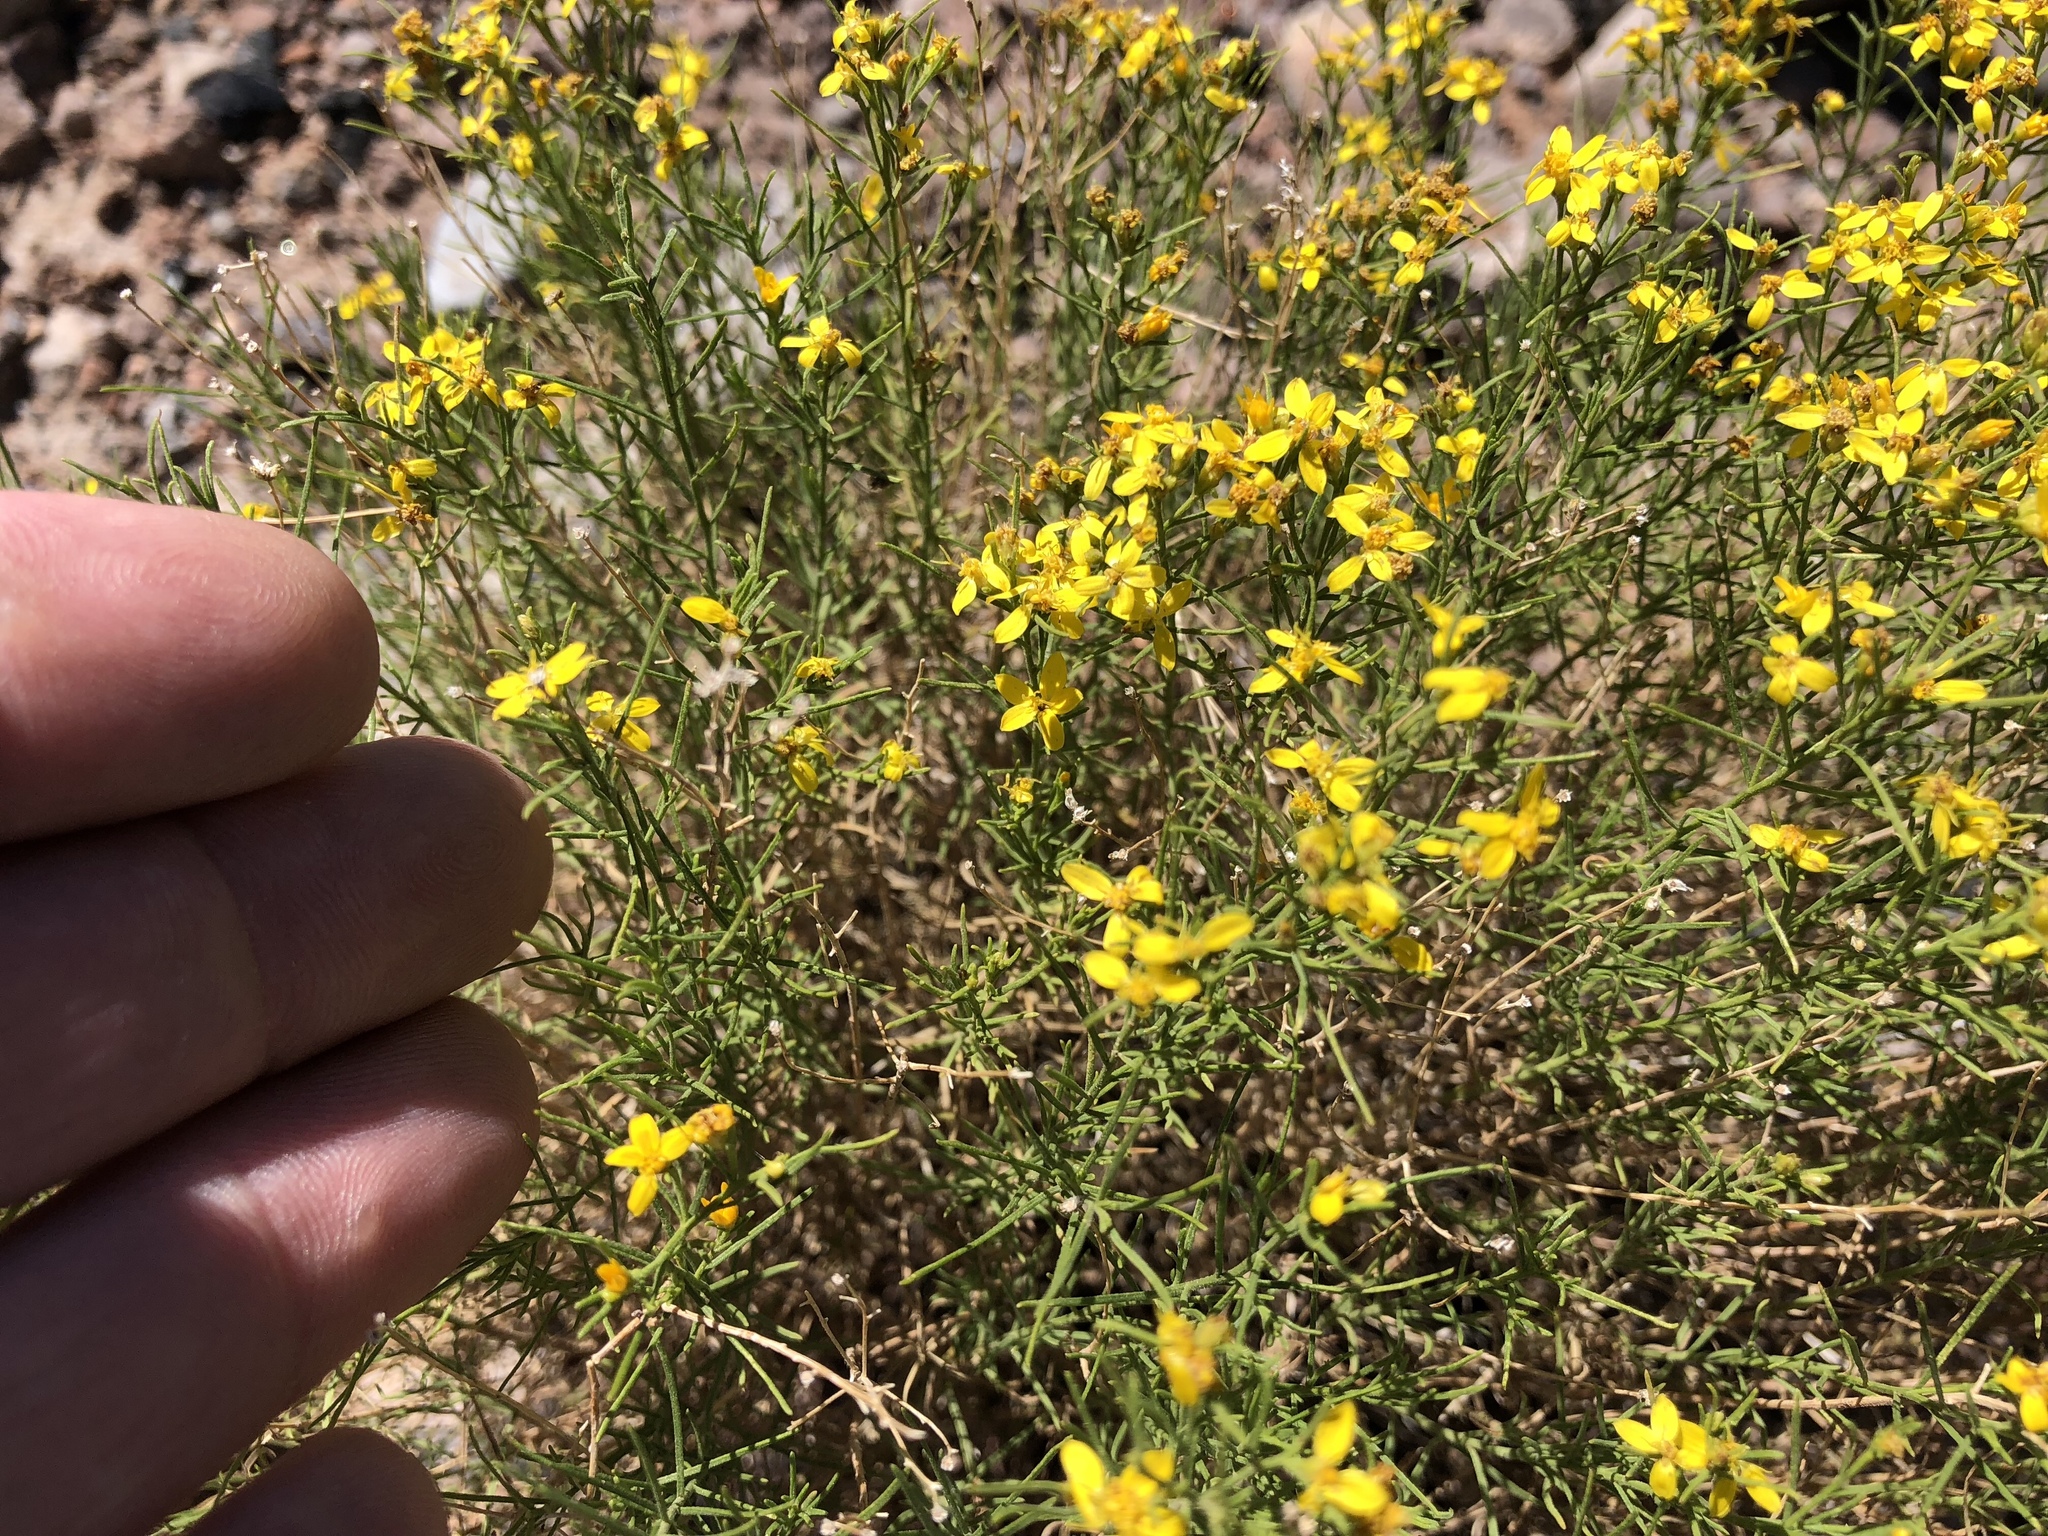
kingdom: Plantae
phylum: Tracheophyta
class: Magnoliopsida
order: Asterales
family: Asteraceae
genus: Gutierrezia
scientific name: Gutierrezia sarothrae
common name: Broom snakeweed
